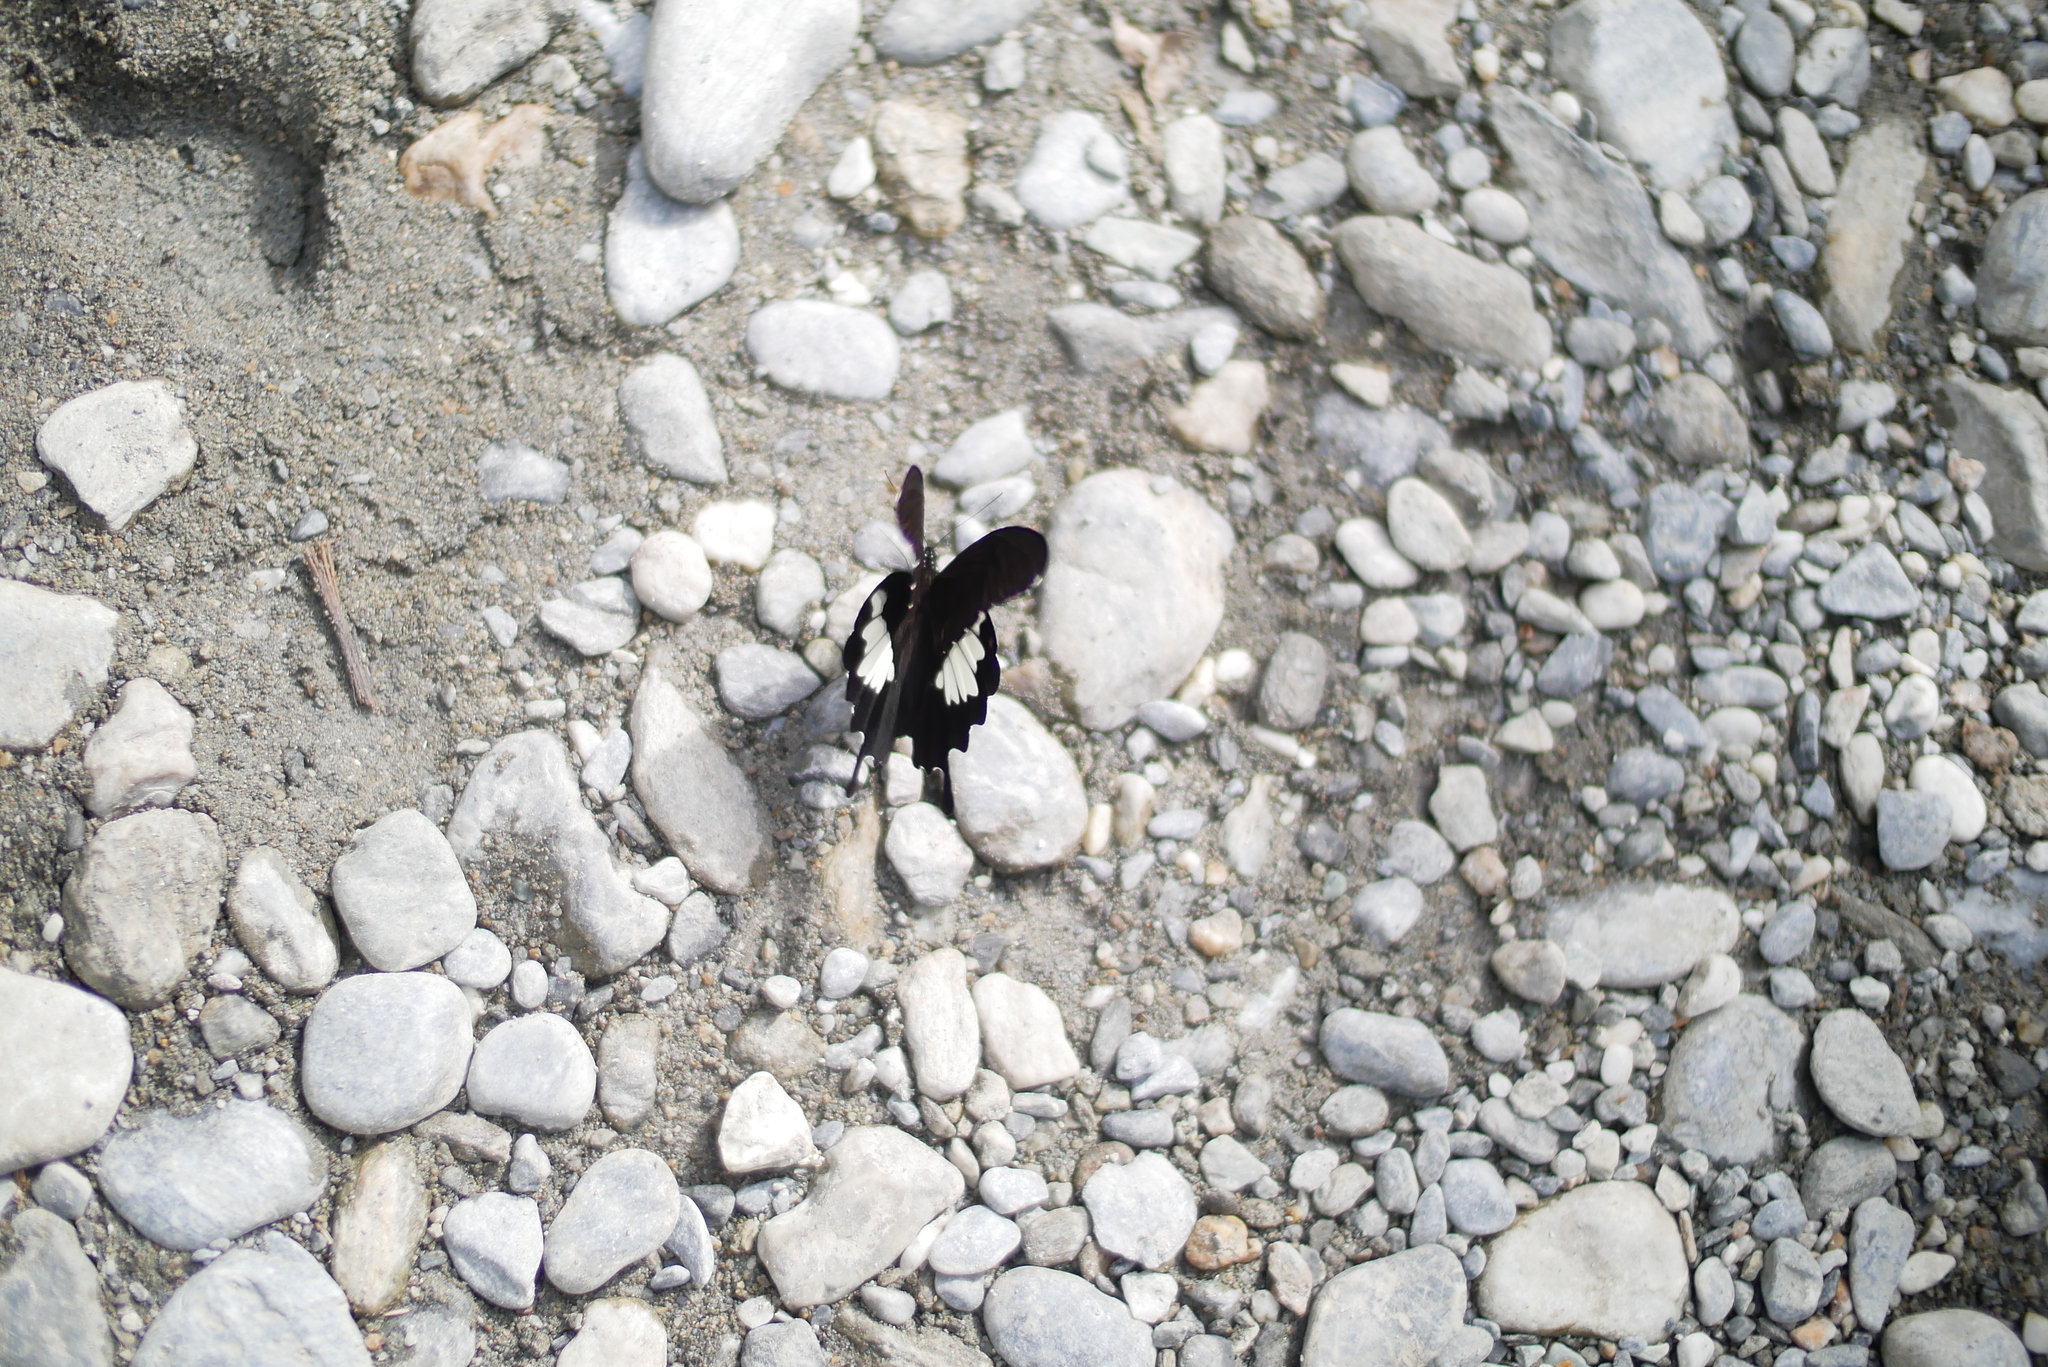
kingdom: Animalia
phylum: Arthropoda
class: Insecta
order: Lepidoptera
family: Papilionidae
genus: Papilio
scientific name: Papilio nephelus
